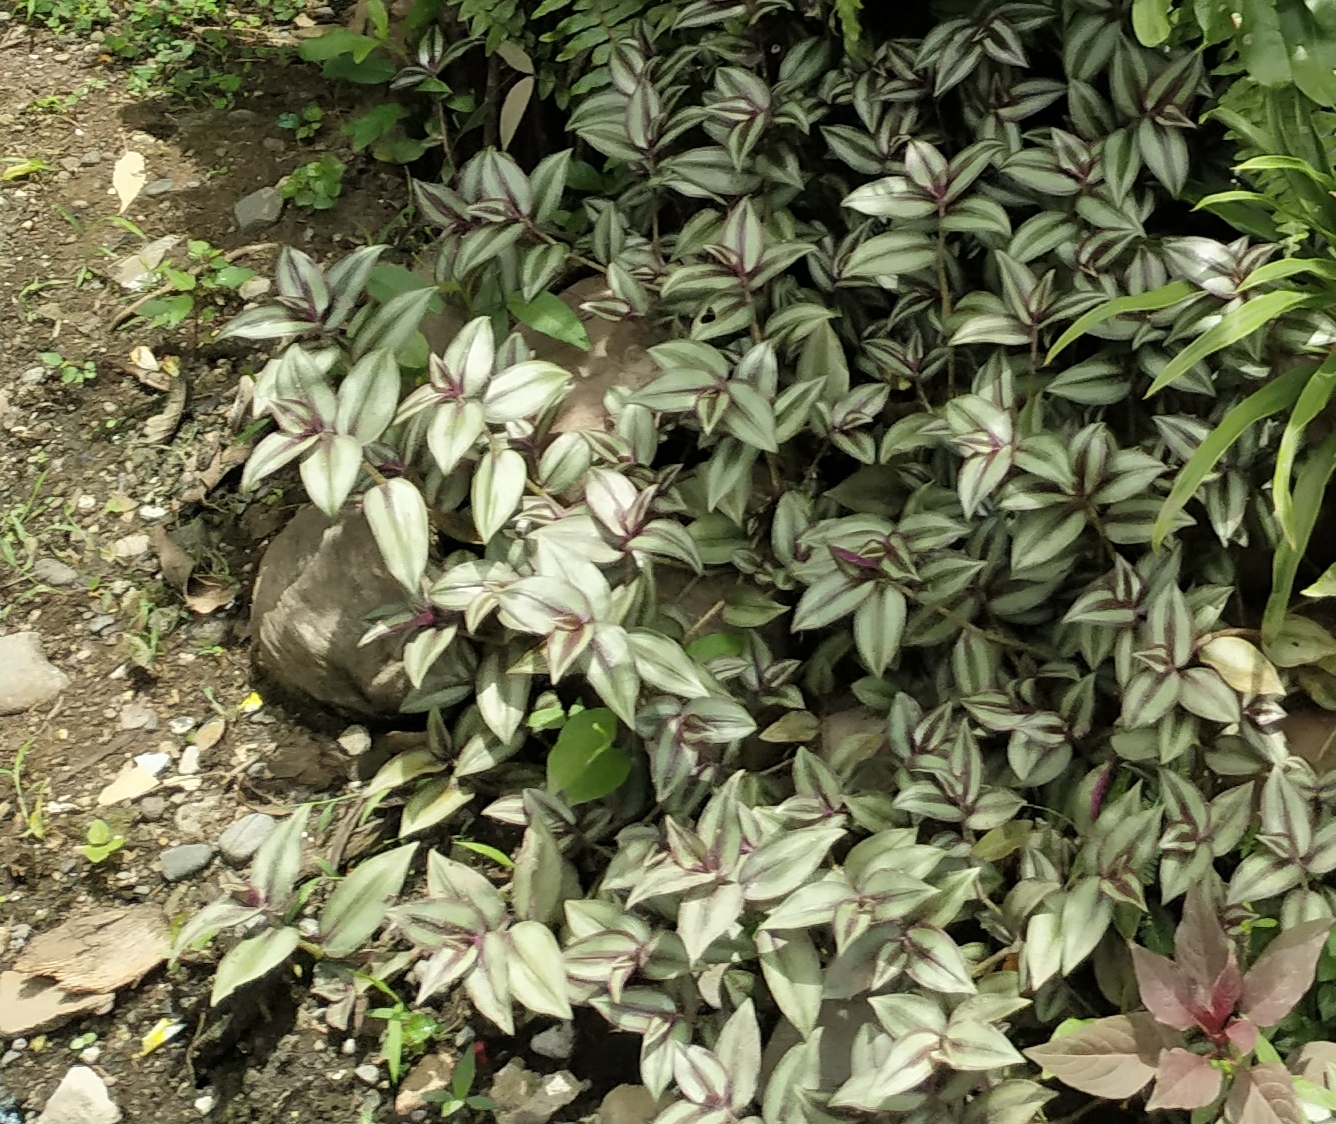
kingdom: Plantae
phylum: Tracheophyta
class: Liliopsida
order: Commelinales
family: Commelinaceae
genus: Tradescantia
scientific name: Tradescantia zebrina
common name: Inchplant
